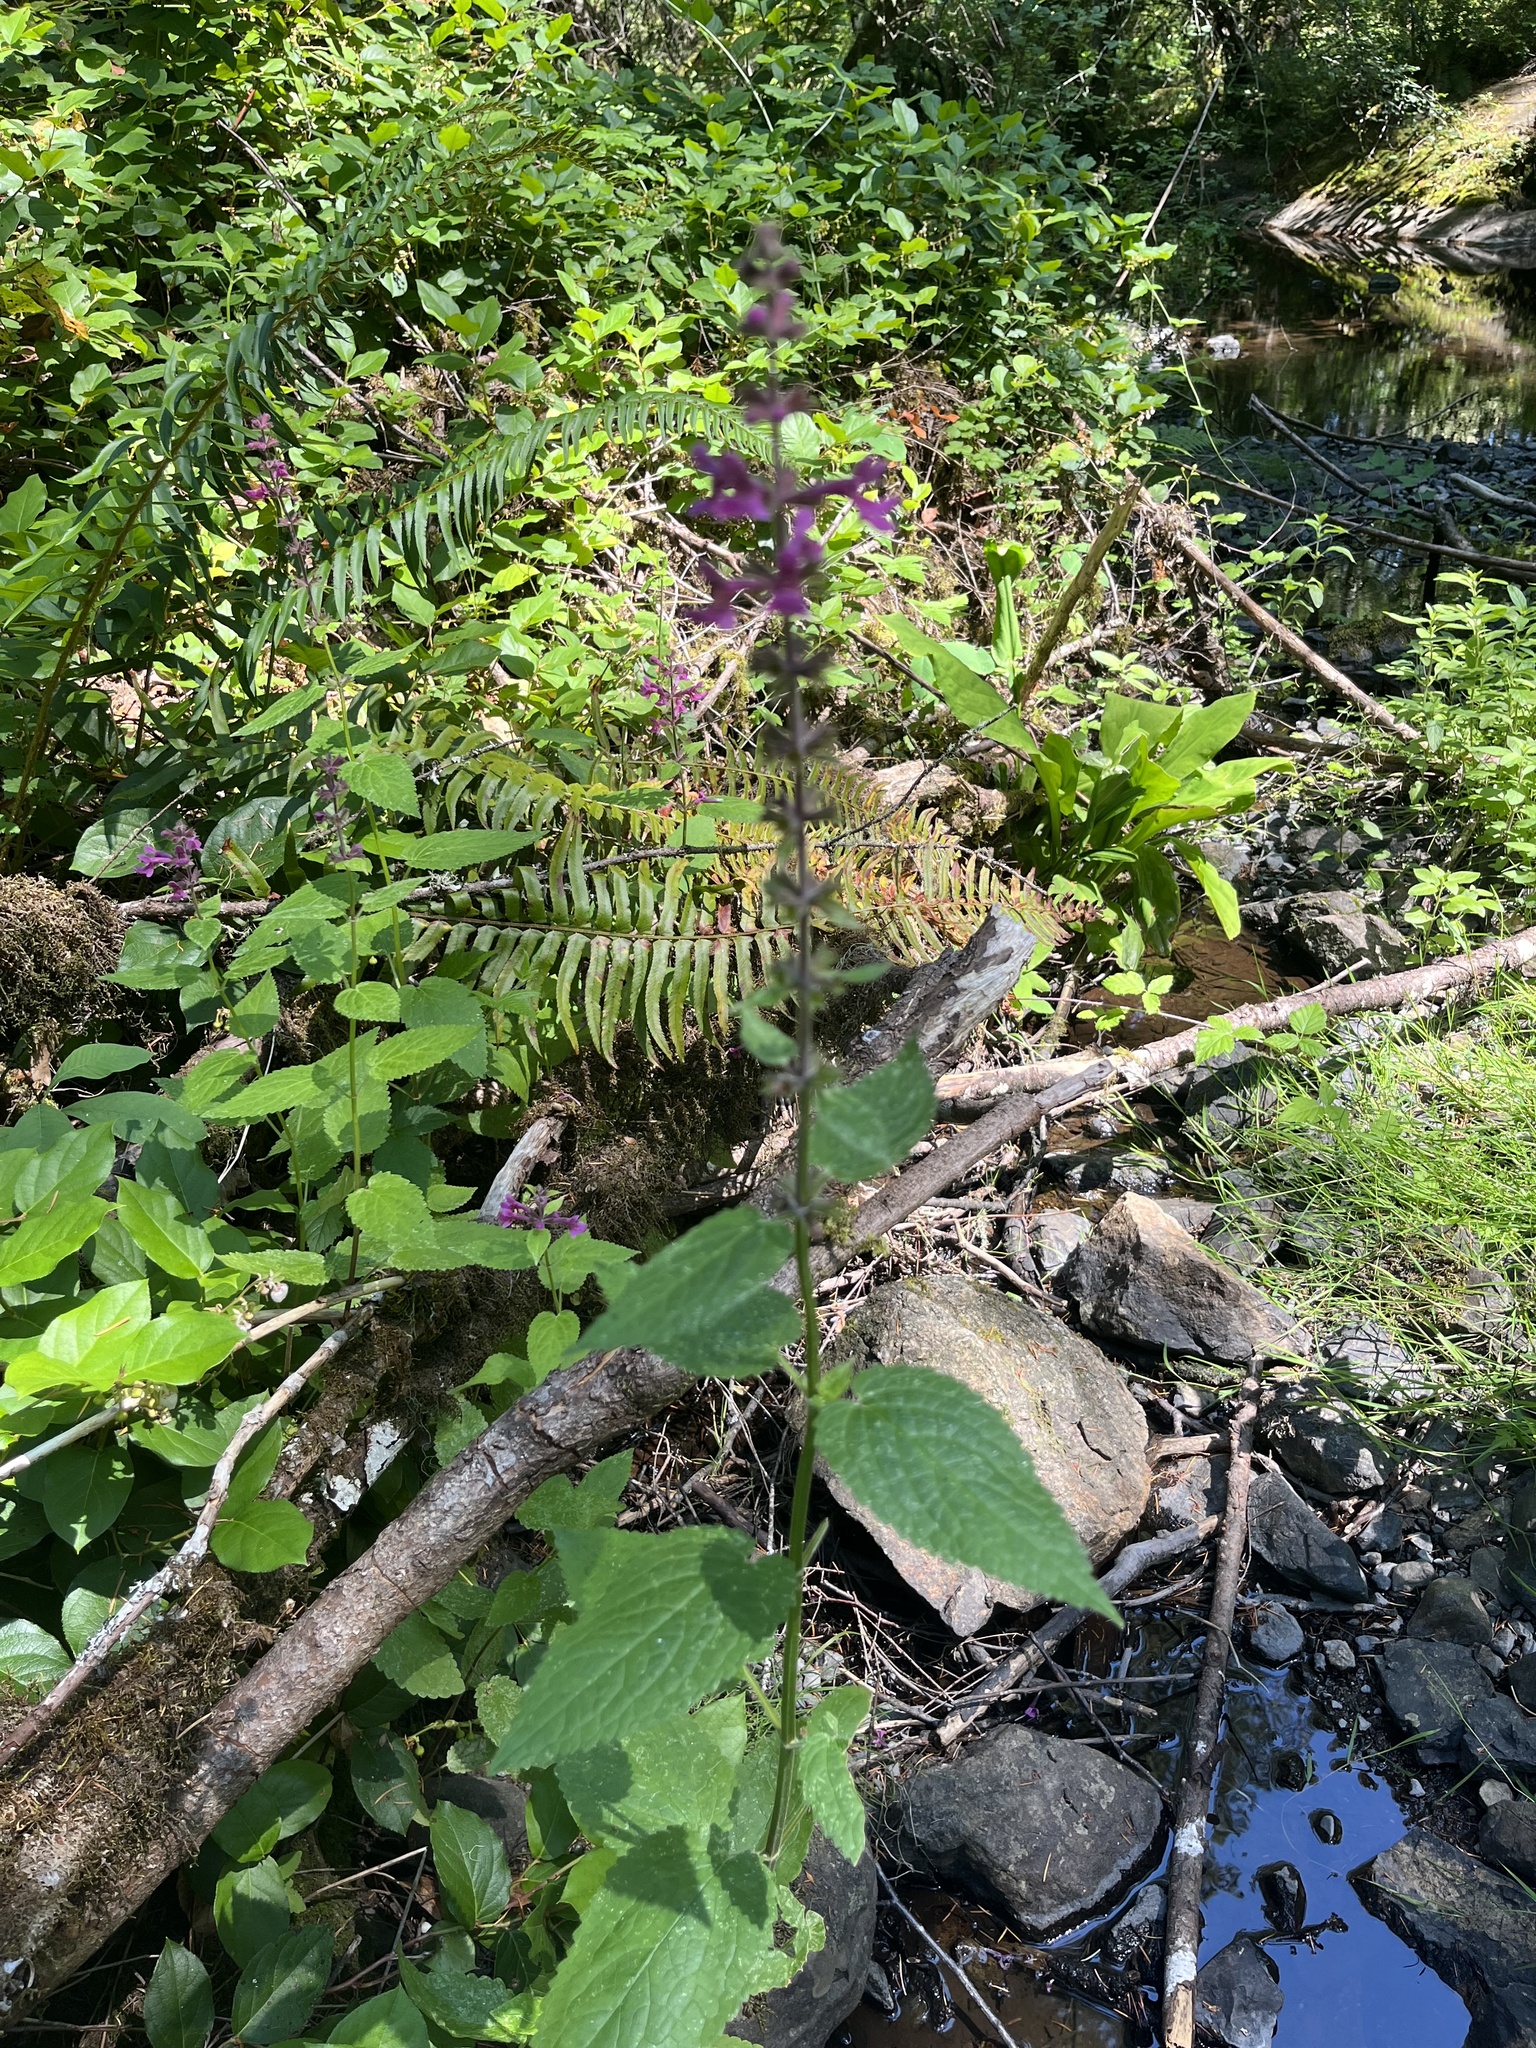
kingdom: Plantae
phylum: Tracheophyta
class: Magnoliopsida
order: Lamiales
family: Lamiaceae
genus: Stachys
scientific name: Stachys chamissonis
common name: Coastal hedge-nettle
